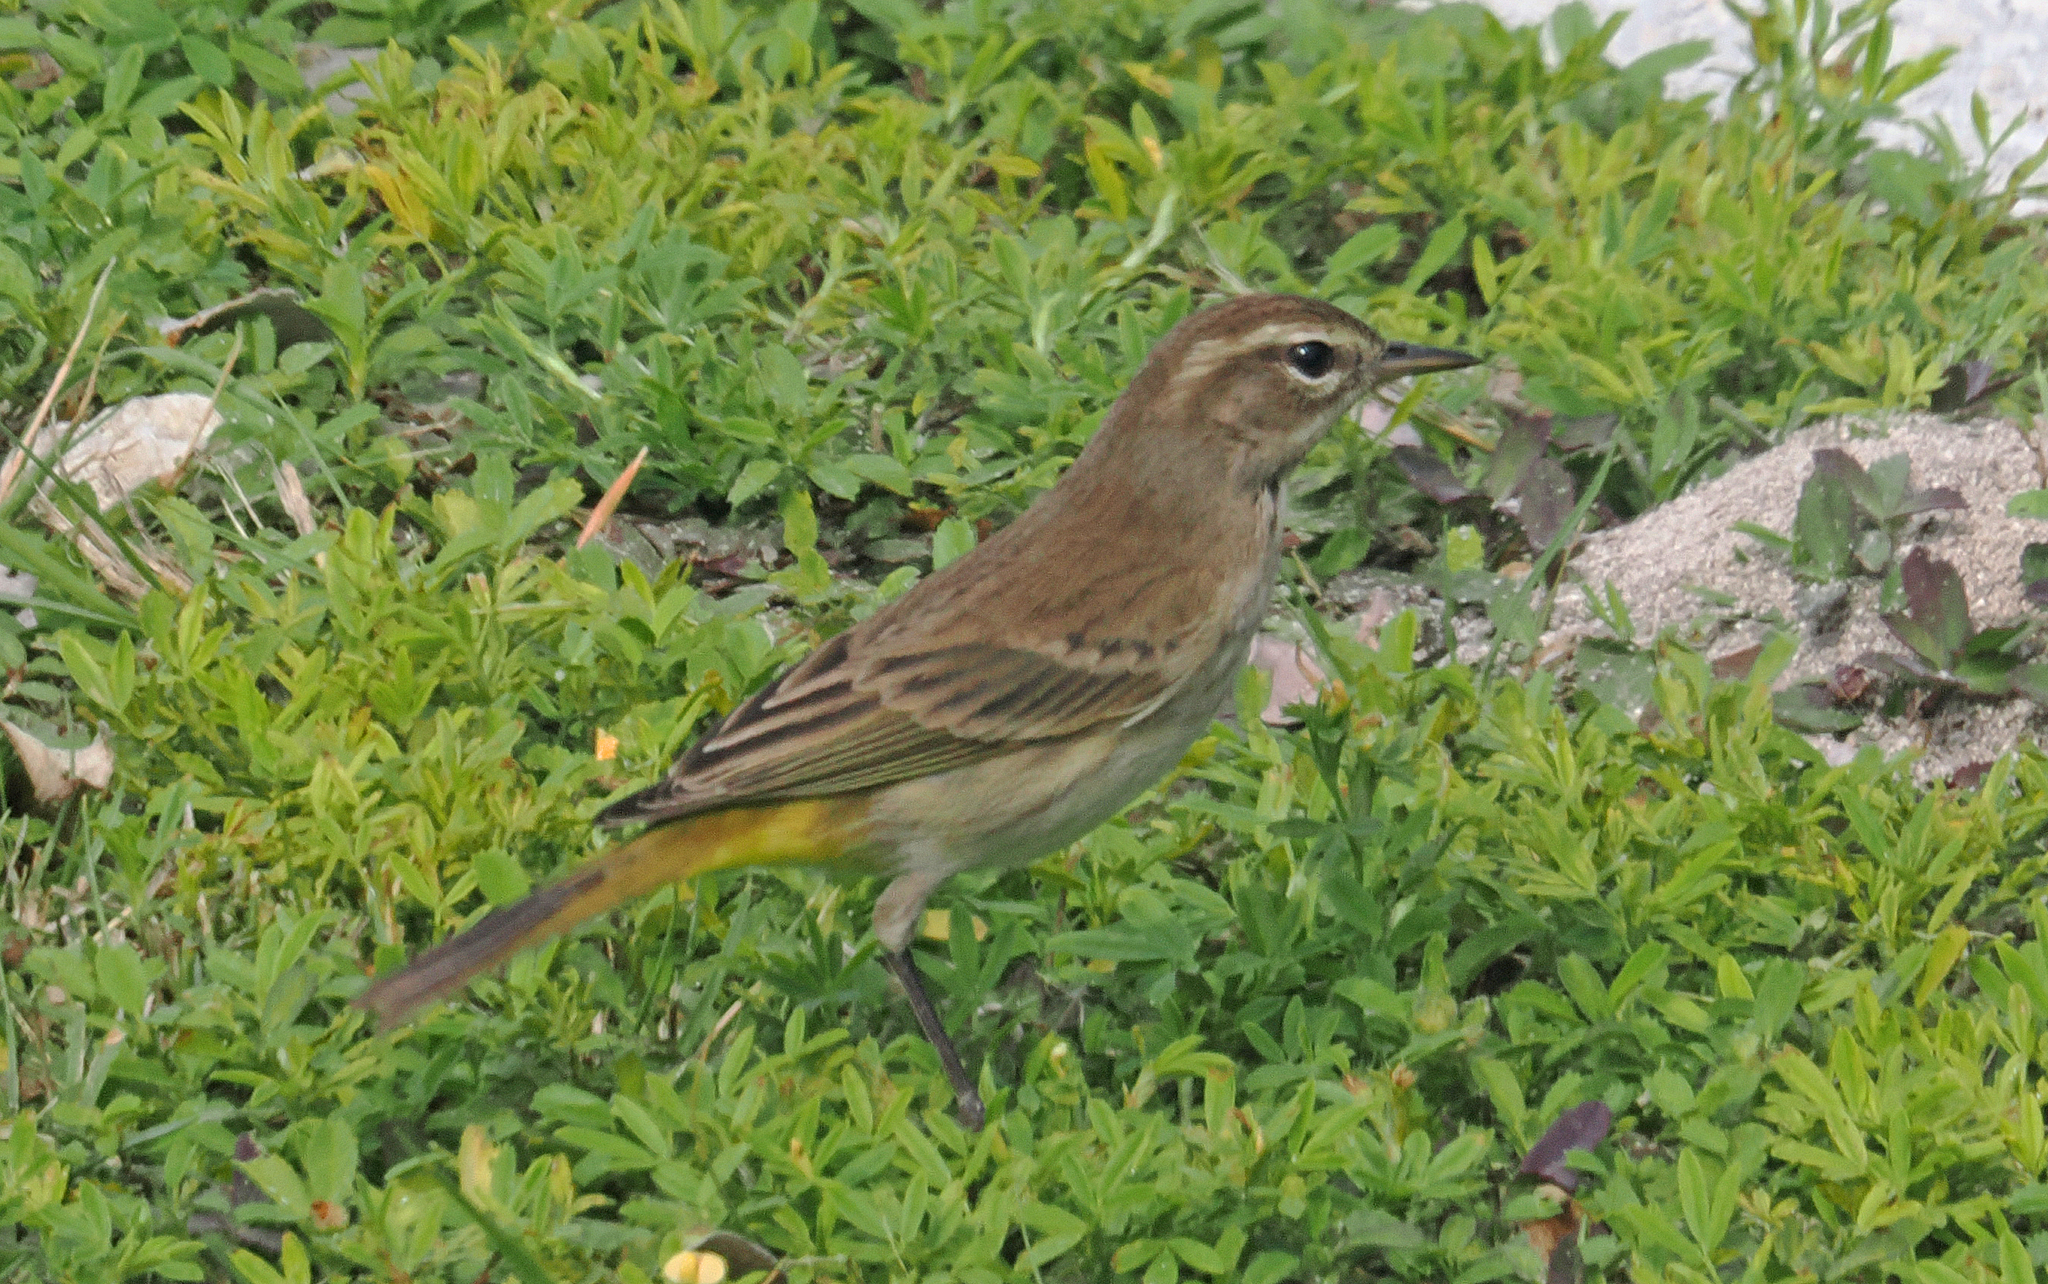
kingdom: Animalia
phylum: Chordata
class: Aves
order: Passeriformes
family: Parulidae
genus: Setophaga
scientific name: Setophaga palmarum
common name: Palm warbler
